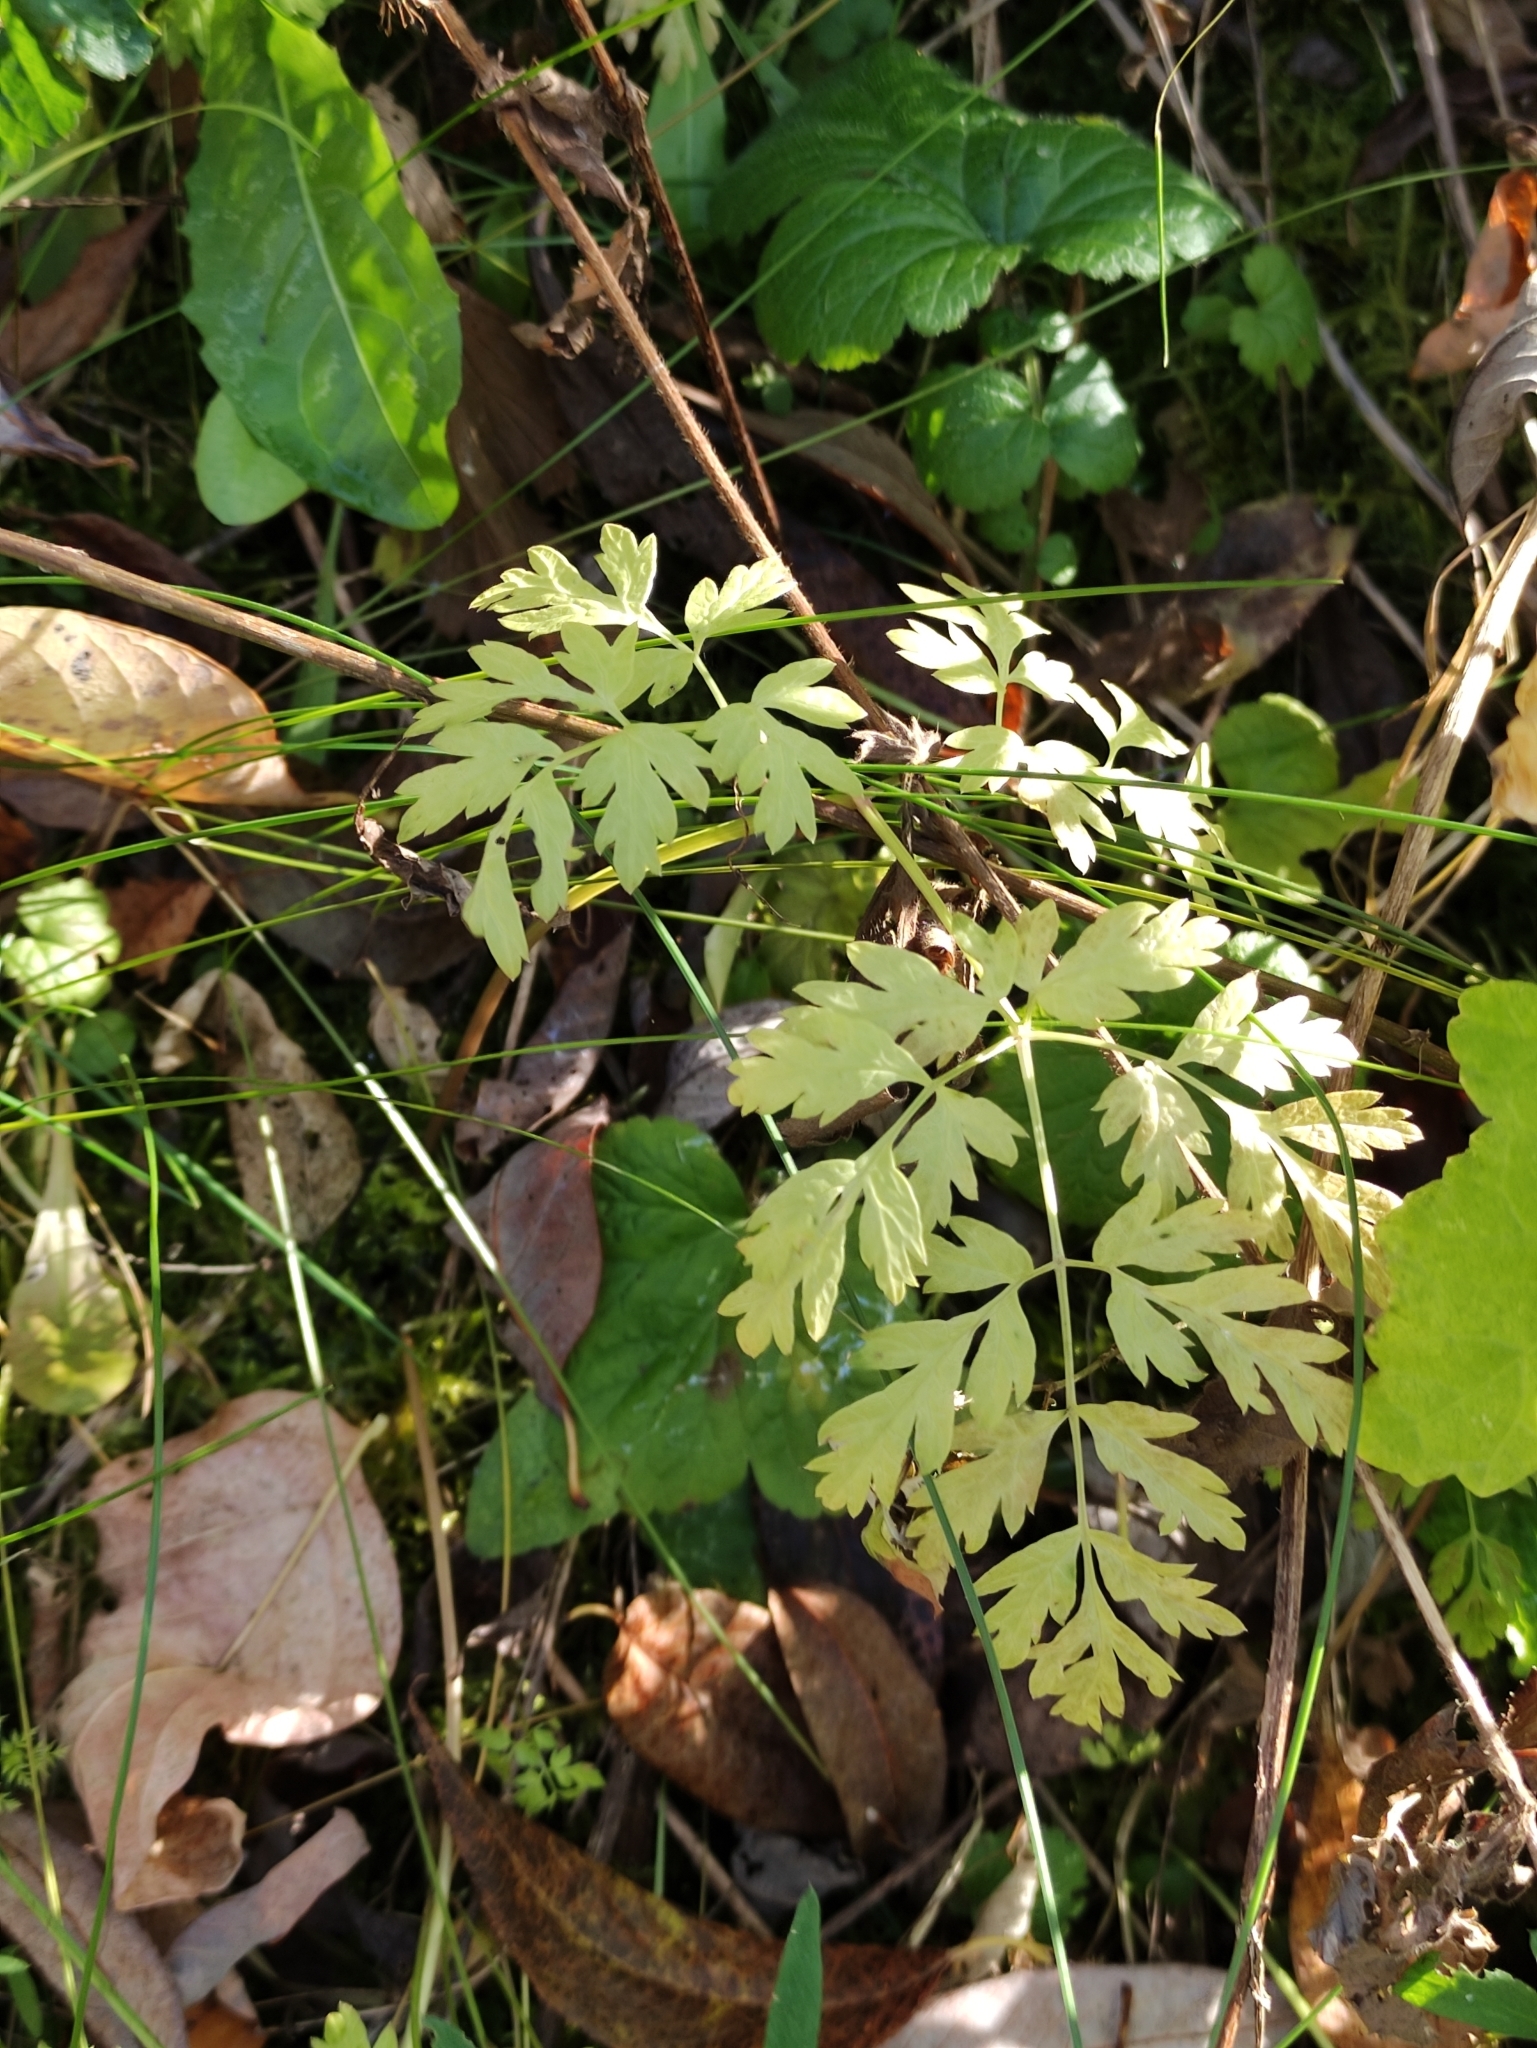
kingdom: Plantae
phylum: Tracheophyta
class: Magnoliopsida
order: Apiales
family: Apiaceae
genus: Anthriscus
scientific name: Anthriscus sylvestris
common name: Cow parsley
